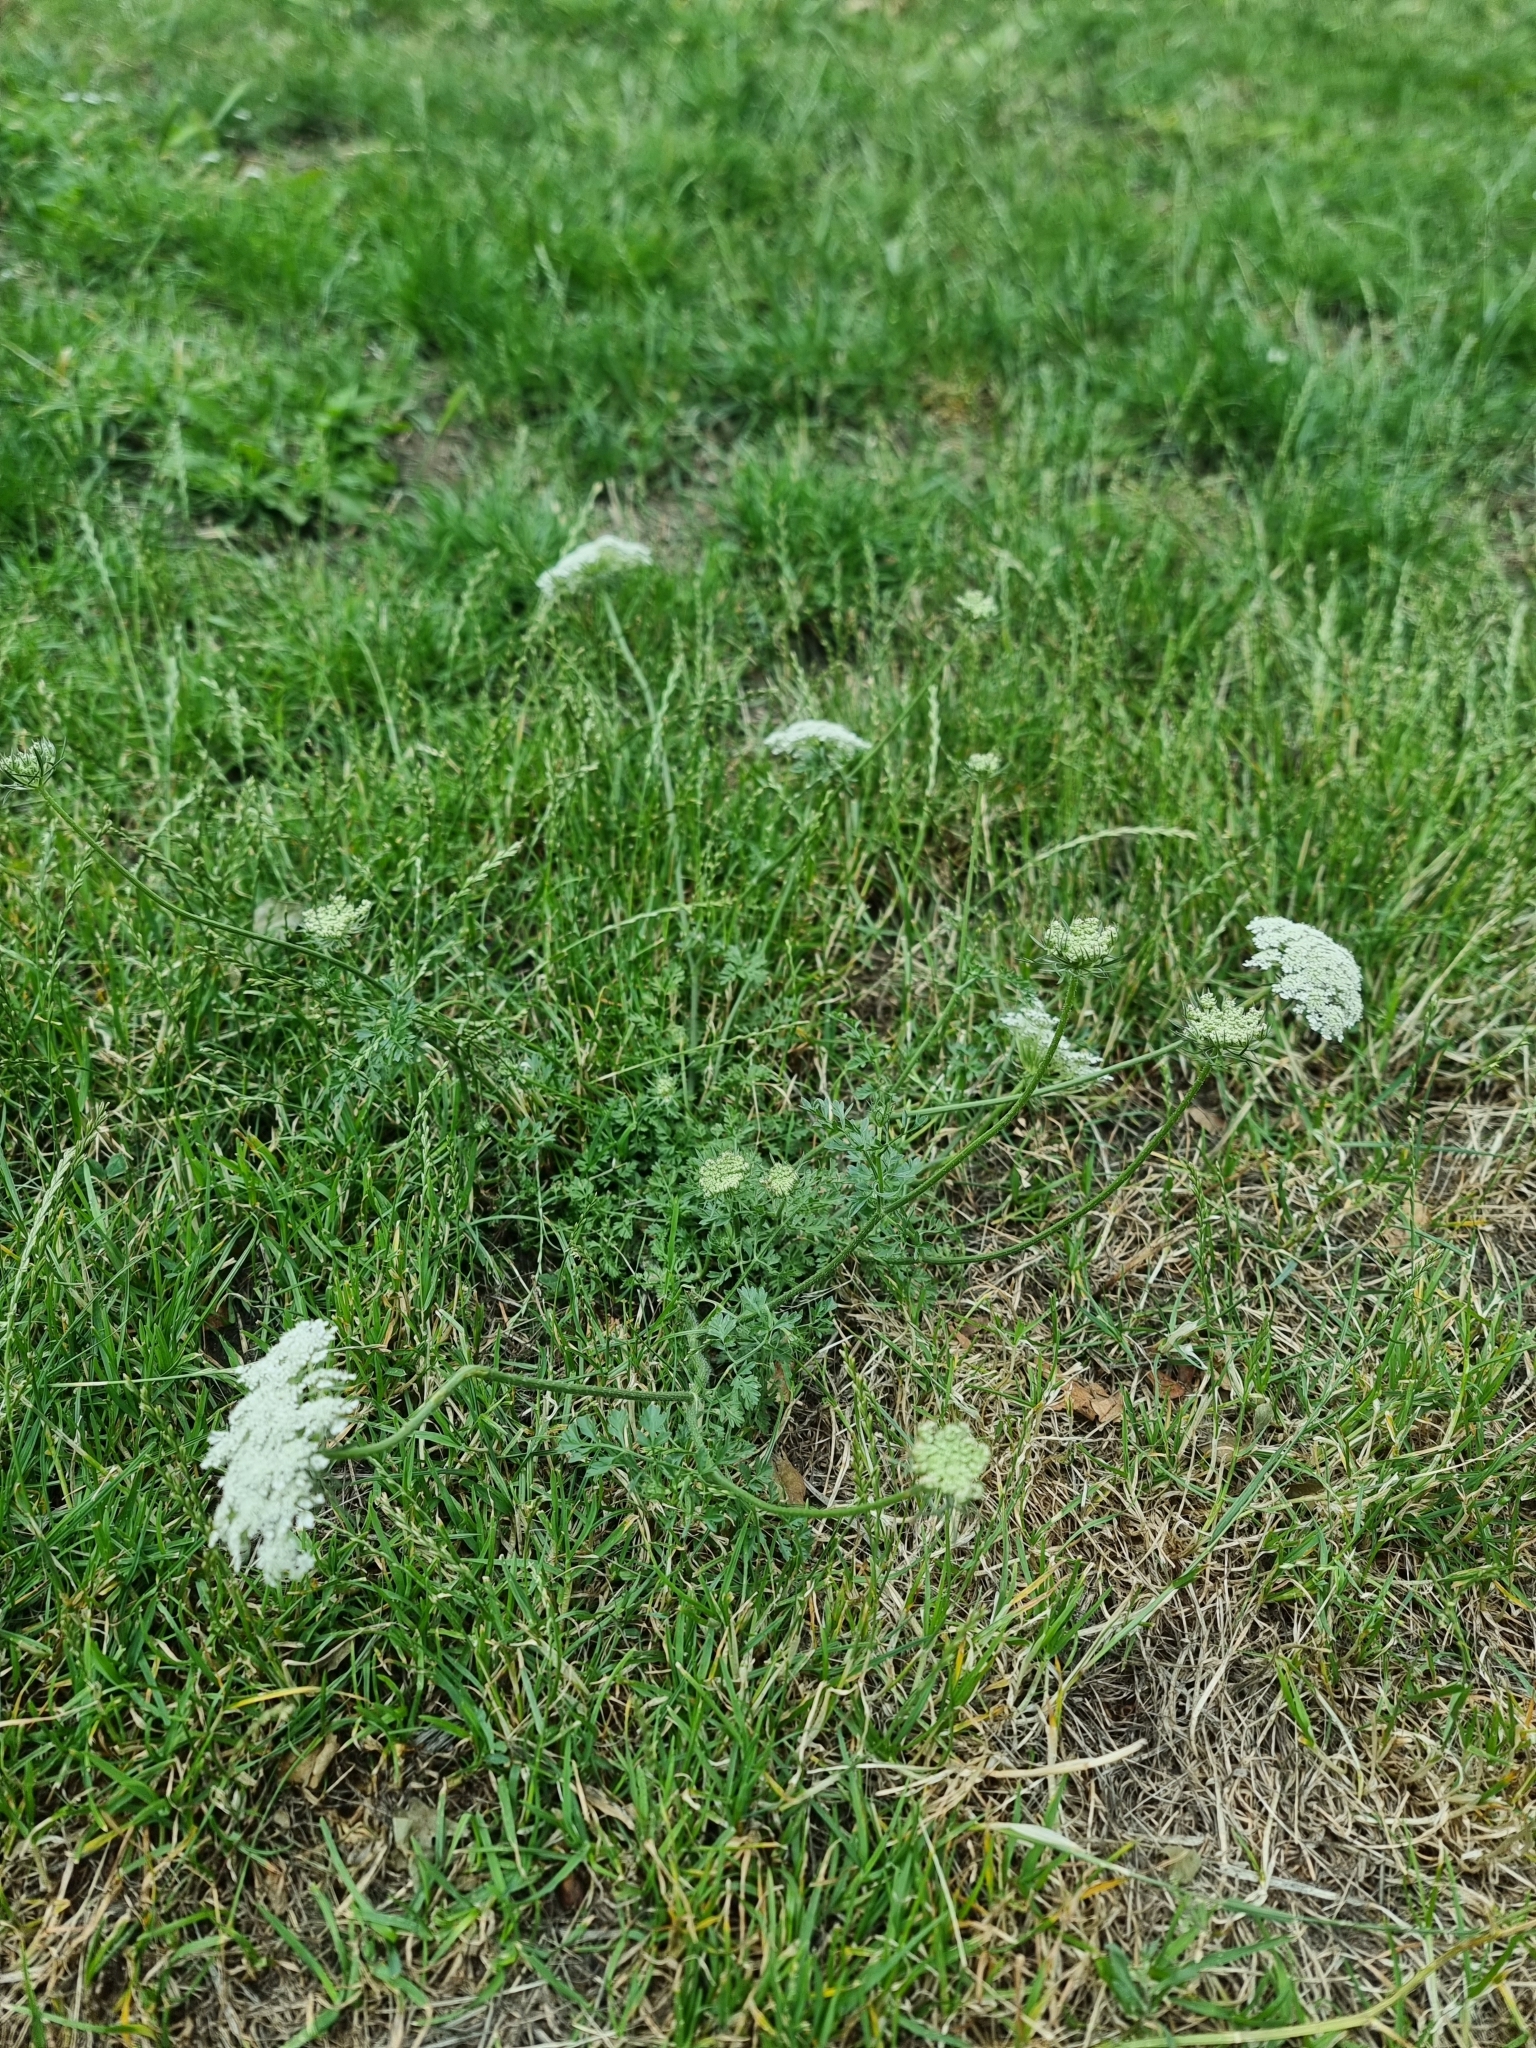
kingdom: Plantae
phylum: Tracheophyta
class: Magnoliopsida
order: Apiales
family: Apiaceae
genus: Daucus
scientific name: Daucus carota
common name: Wild carrot
